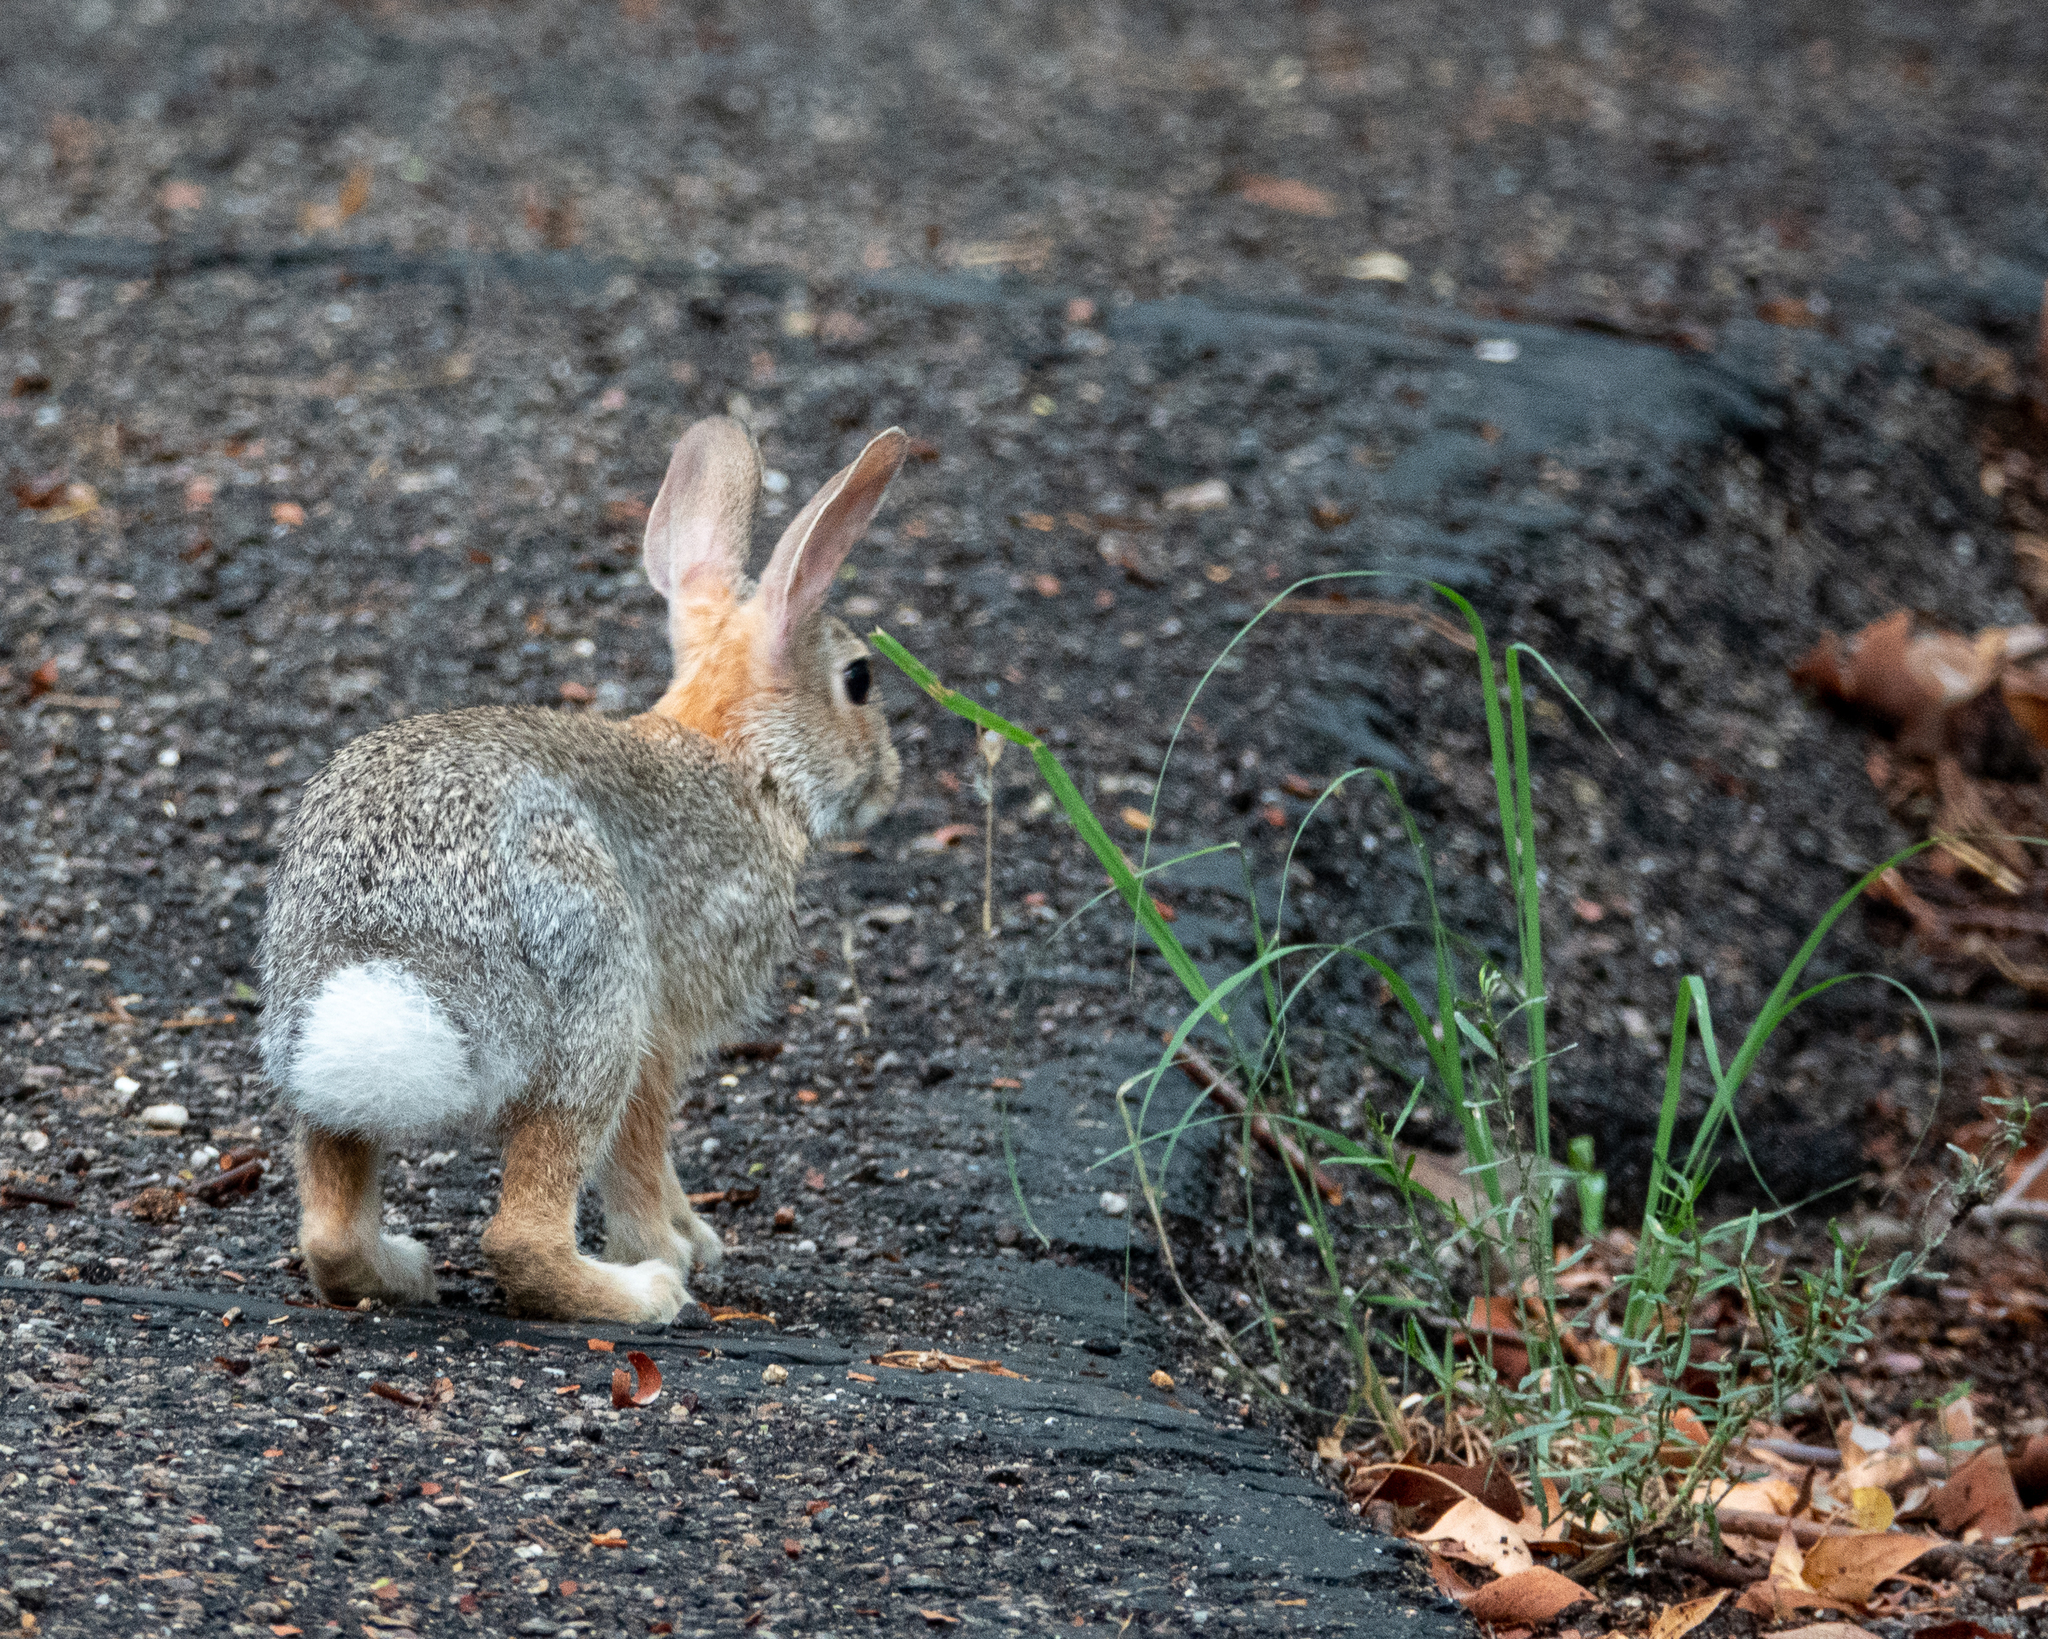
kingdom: Animalia
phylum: Chordata
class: Mammalia
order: Lagomorpha
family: Leporidae
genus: Sylvilagus
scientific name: Sylvilagus audubonii
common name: Desert cottontail
